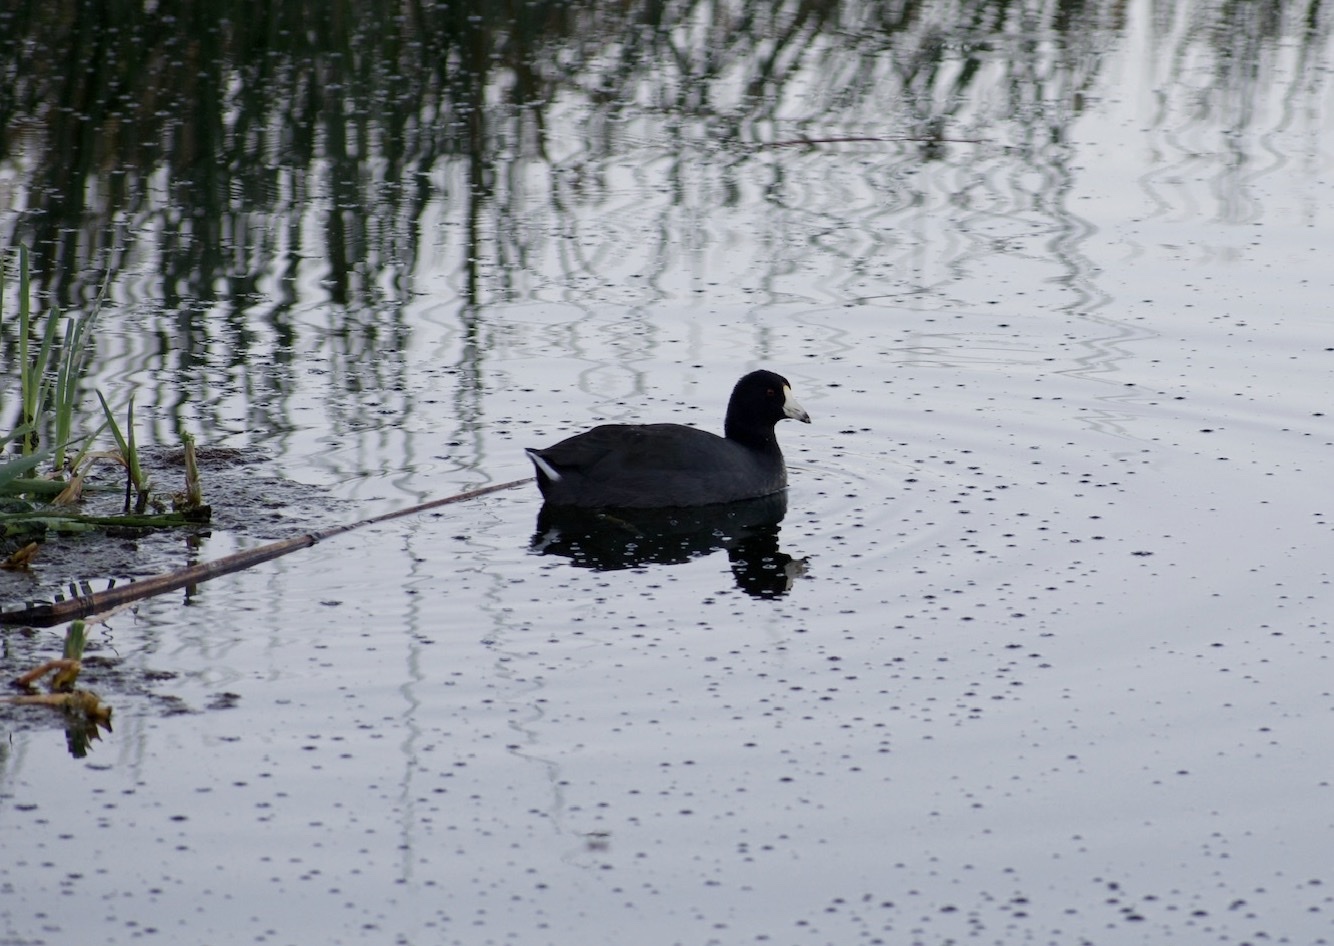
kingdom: Animalia
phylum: Chordata
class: Aves
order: Gruiformes
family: Rallidae
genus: Fulica
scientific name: Fulica americana
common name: American coot
